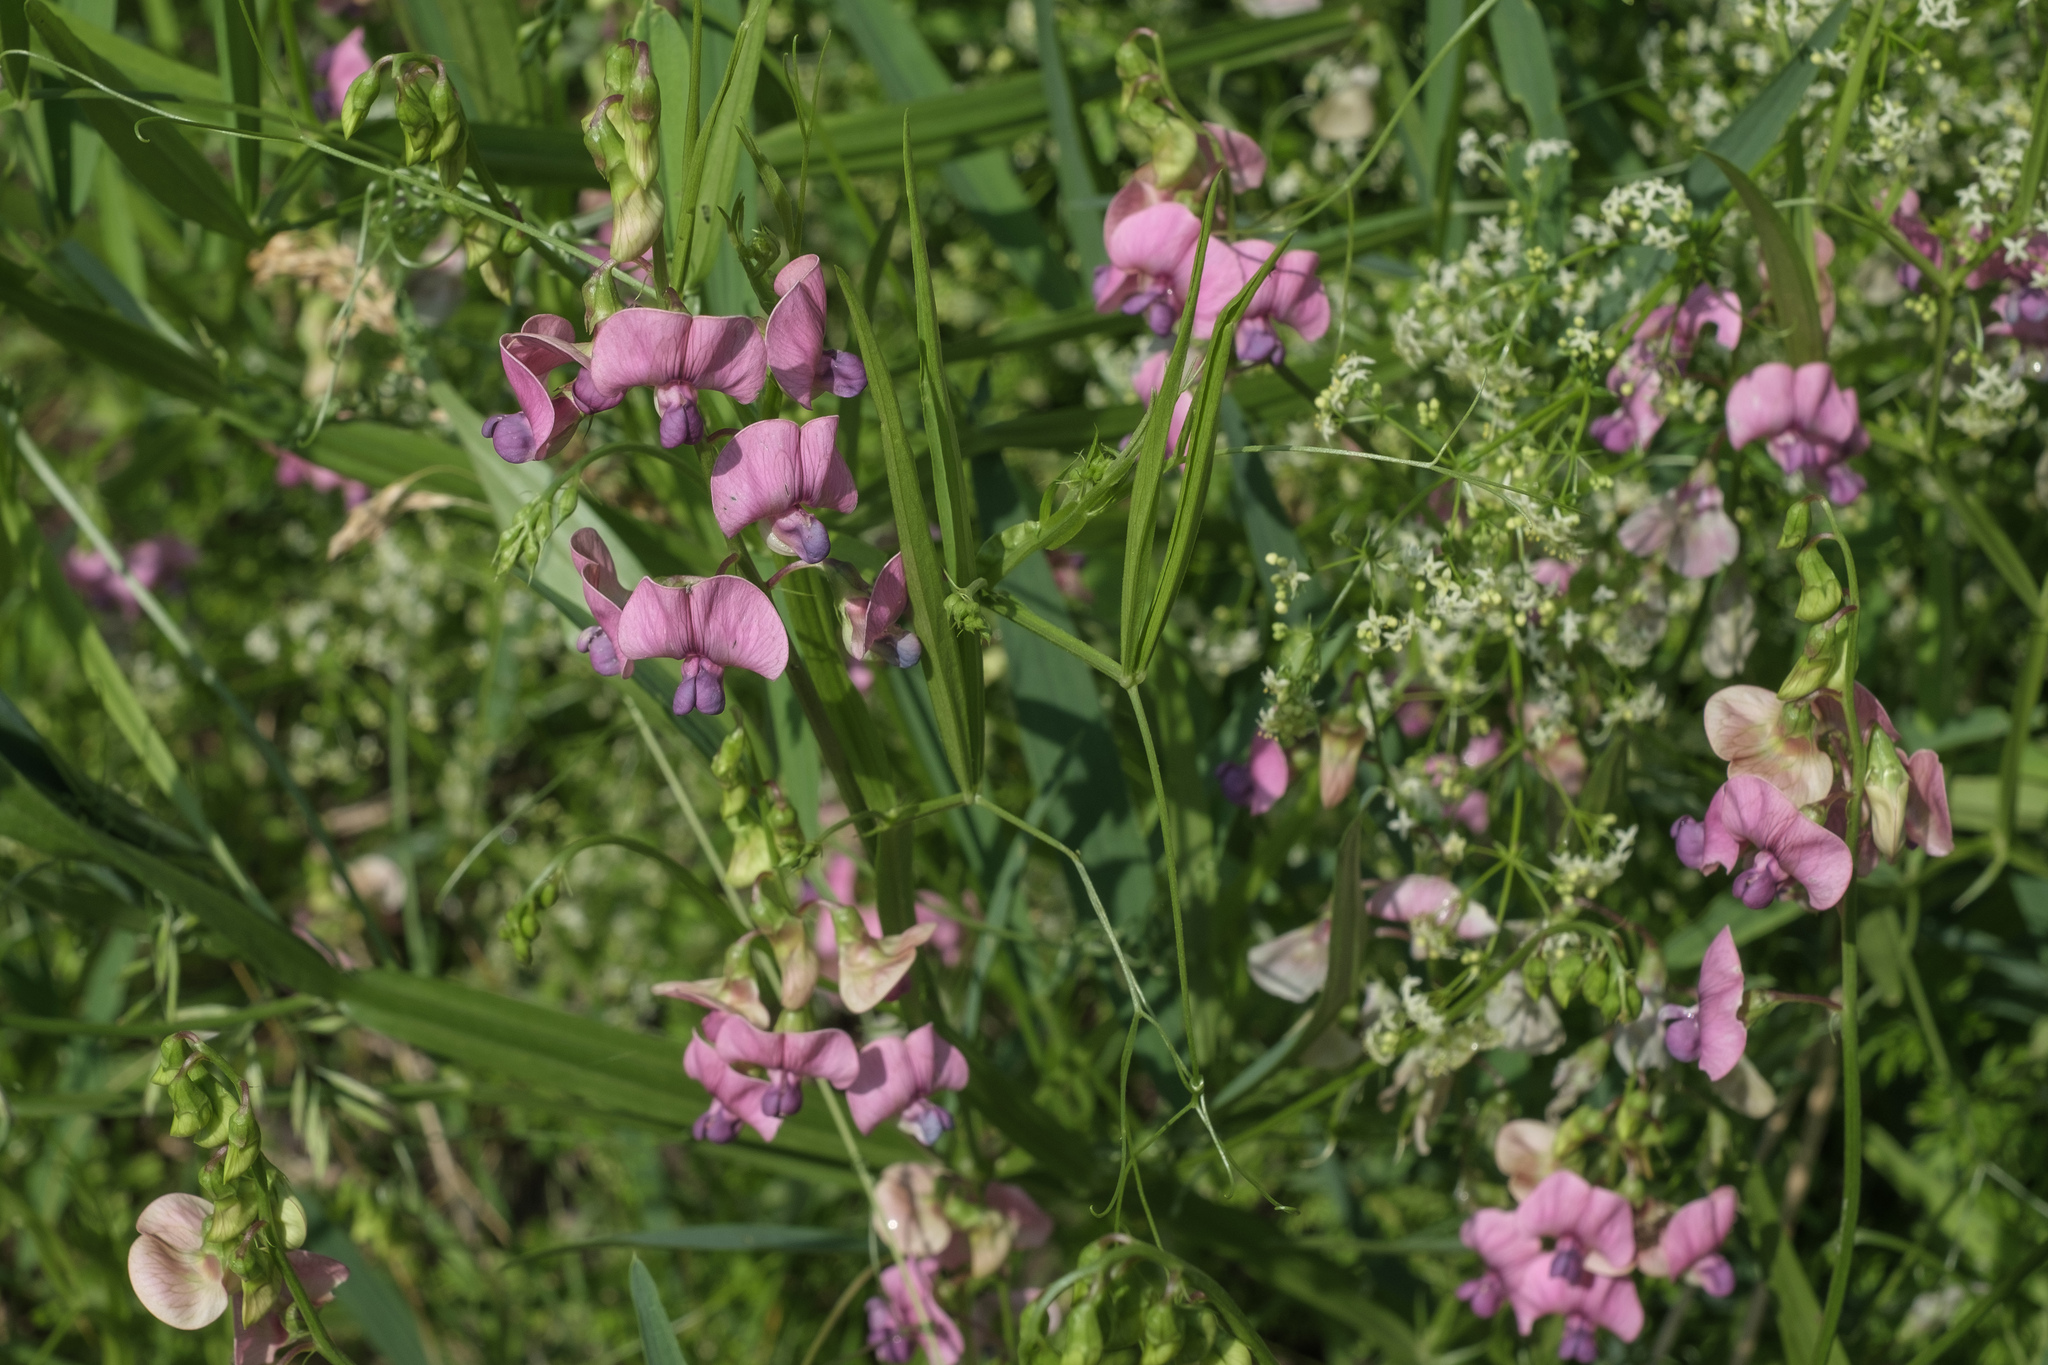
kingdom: Plantae
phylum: Tracheophyta
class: Magnoliopsida
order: Fabales
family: Fabaceae
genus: Lathyrus
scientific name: Lathyrus sylvestris
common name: Flat pea
